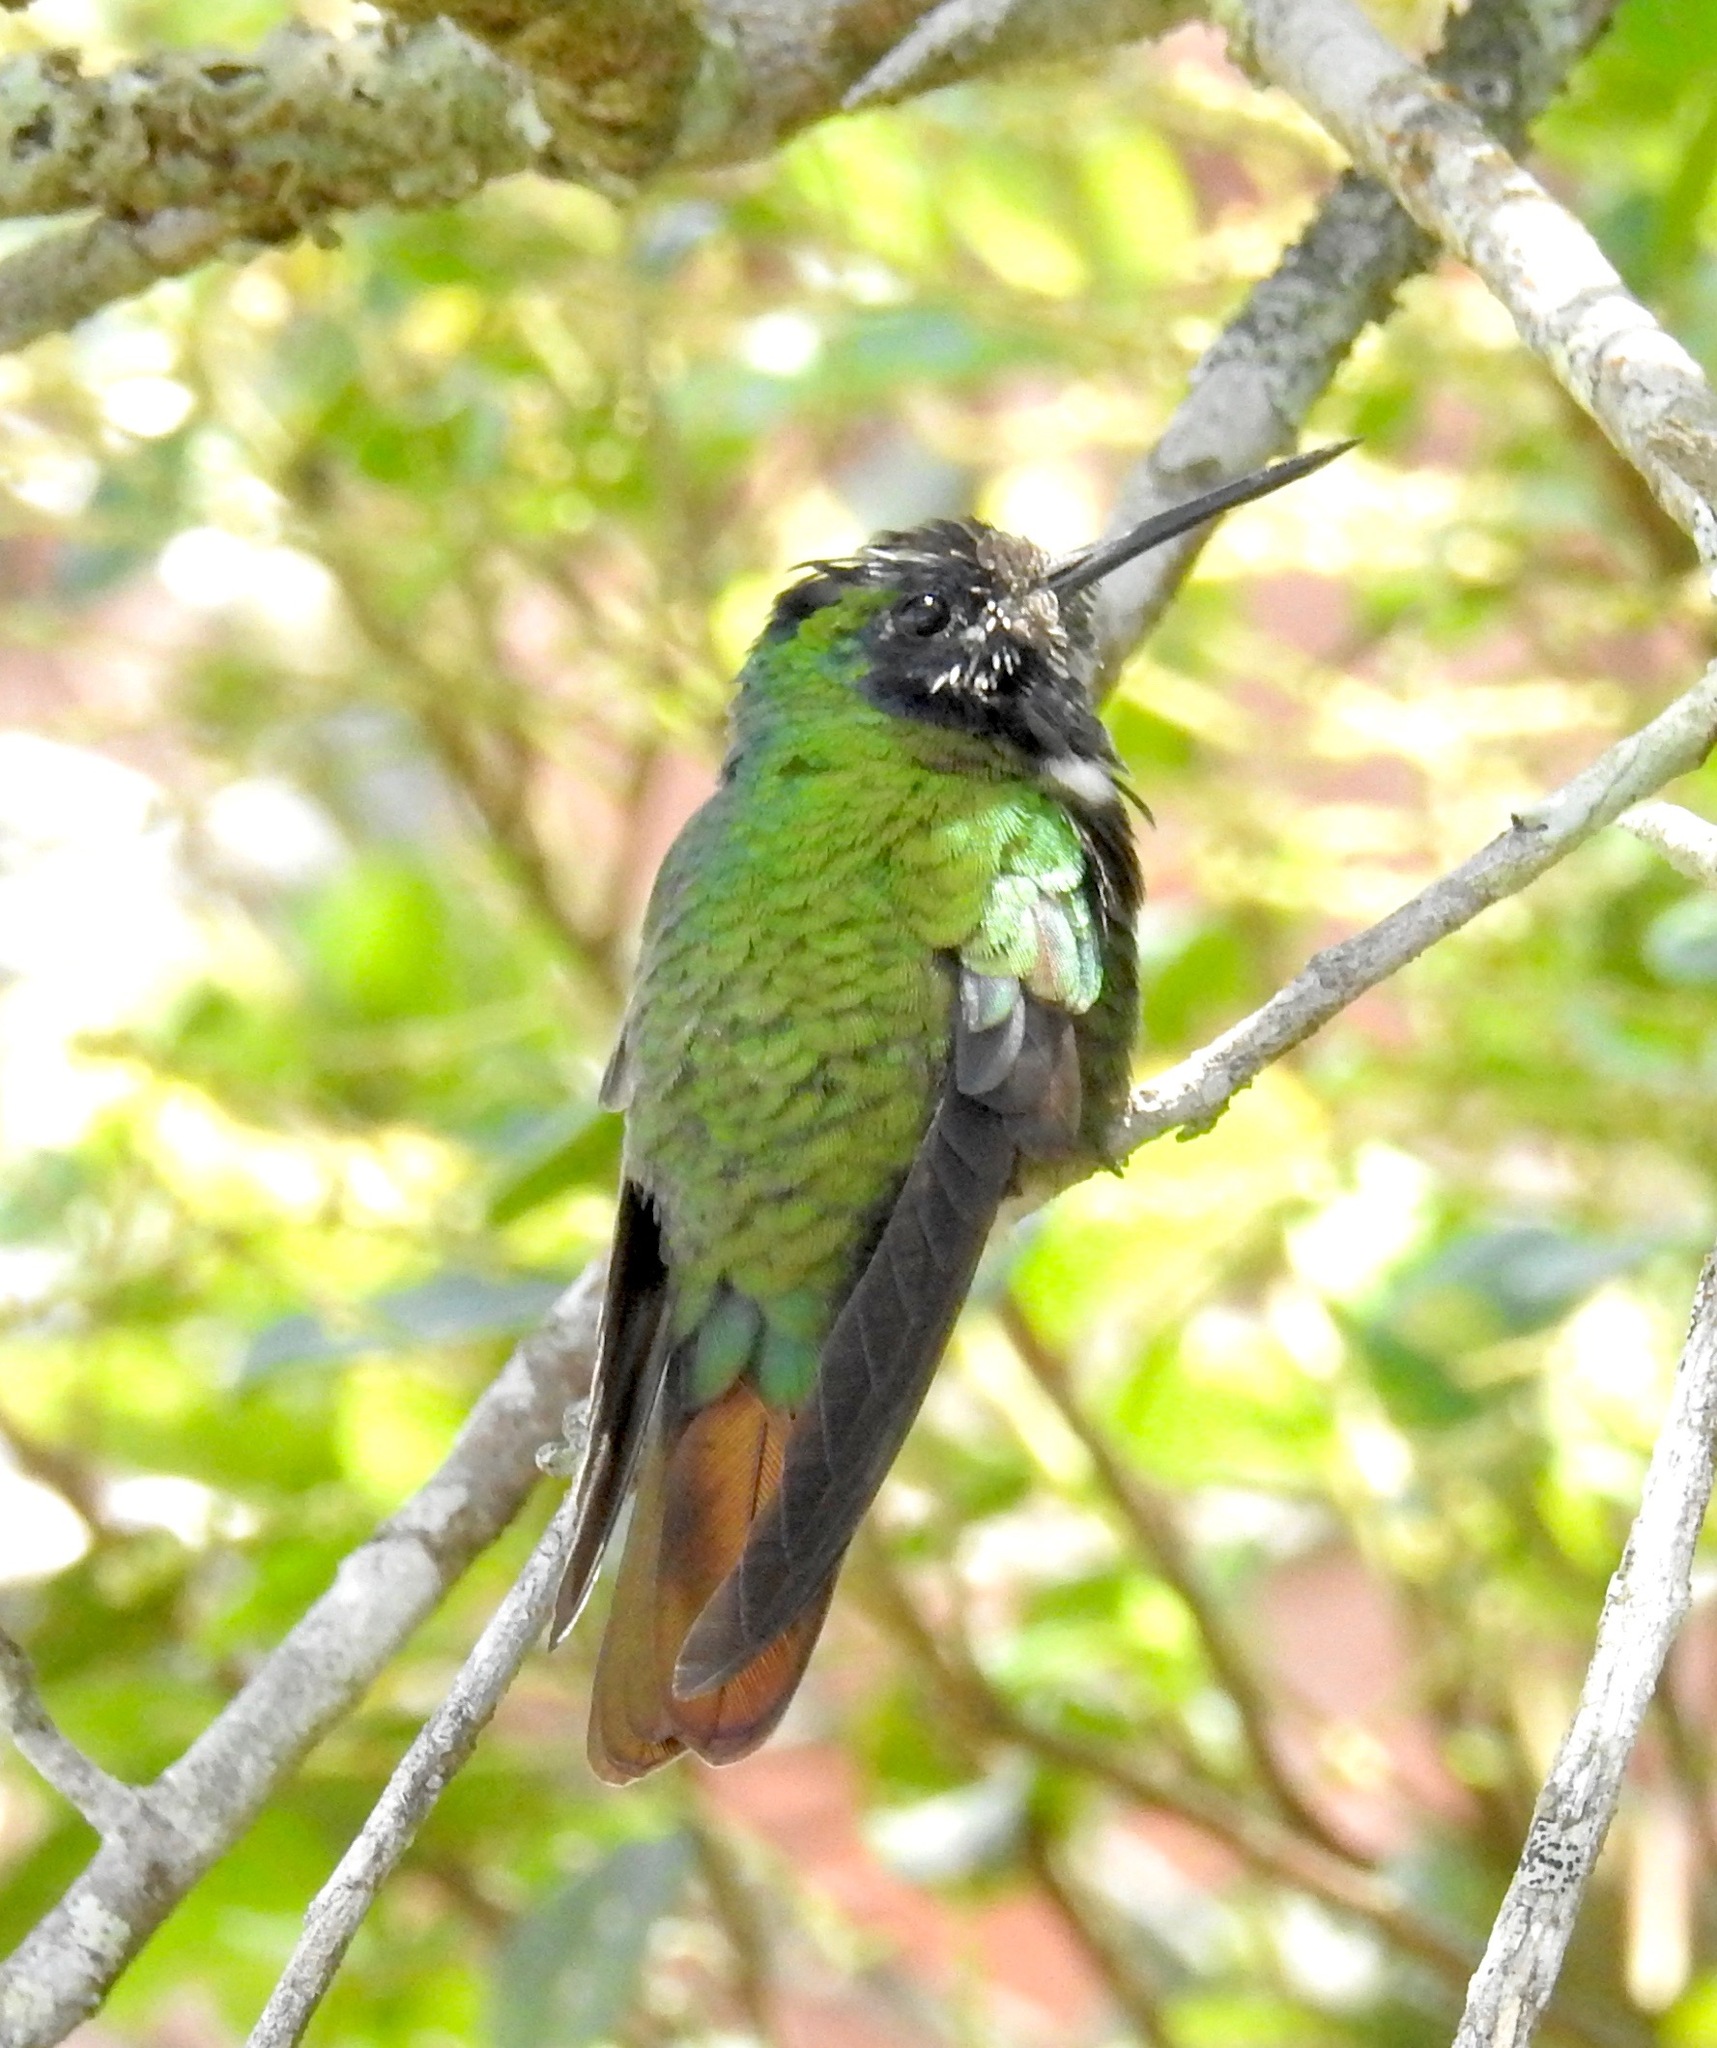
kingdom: Animalia
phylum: Chordata
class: Aves
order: Apodiformes
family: Trochilidae
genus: Augastes
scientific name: Augastes lumachella
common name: Hooded visorbearer
